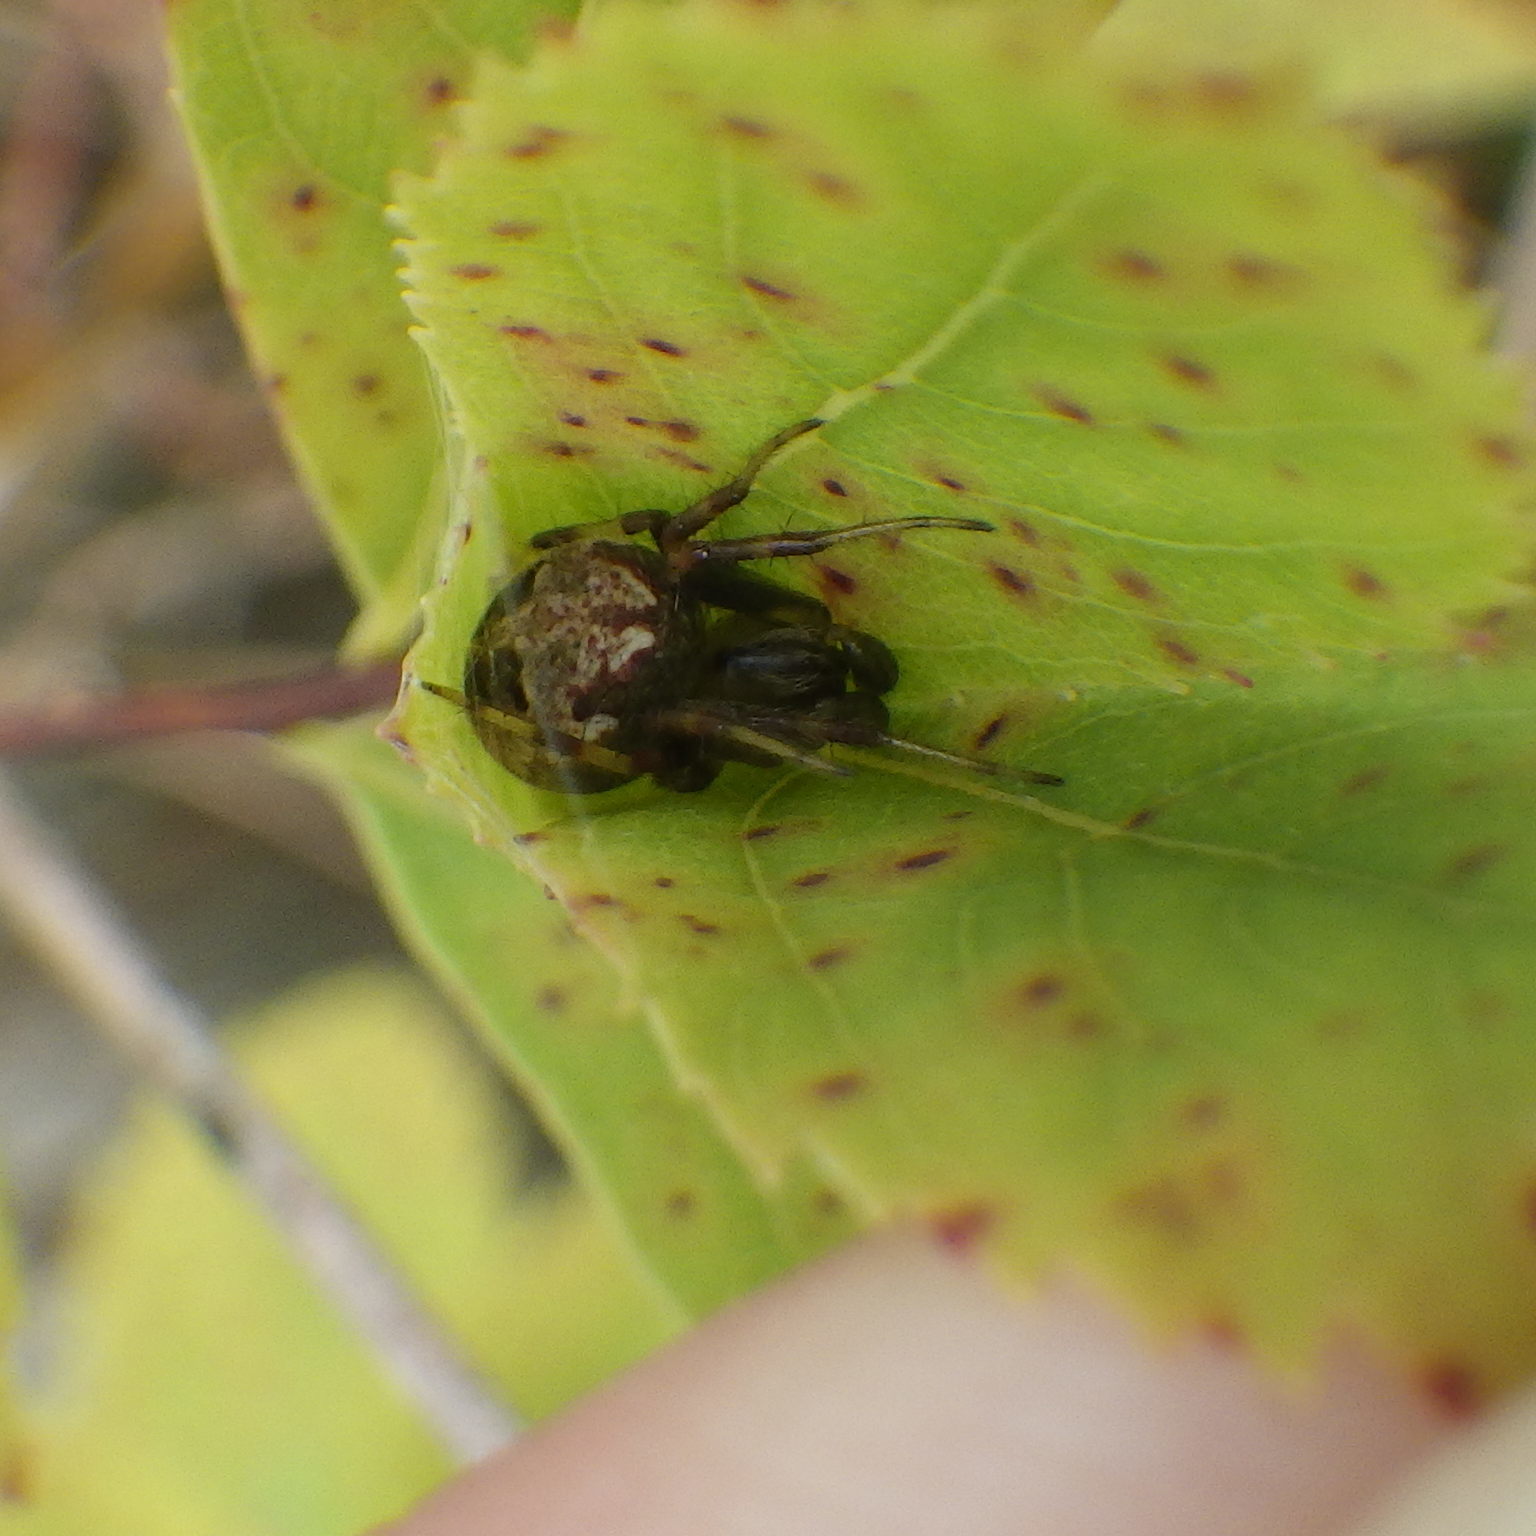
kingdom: Animalia
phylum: Arthropoda
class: Arachnida
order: Araneae
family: Araneidae
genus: Neoscona
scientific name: Neoscona arabesca
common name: Orb weavers
